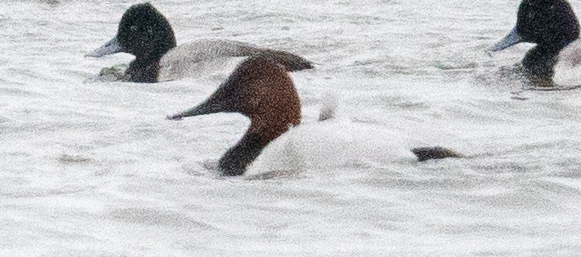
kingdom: Animalia
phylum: Chordata
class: Aves
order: Anseriformes
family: Anatidae
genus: Aythya
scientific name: Aythya valisineria
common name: Canvasback
